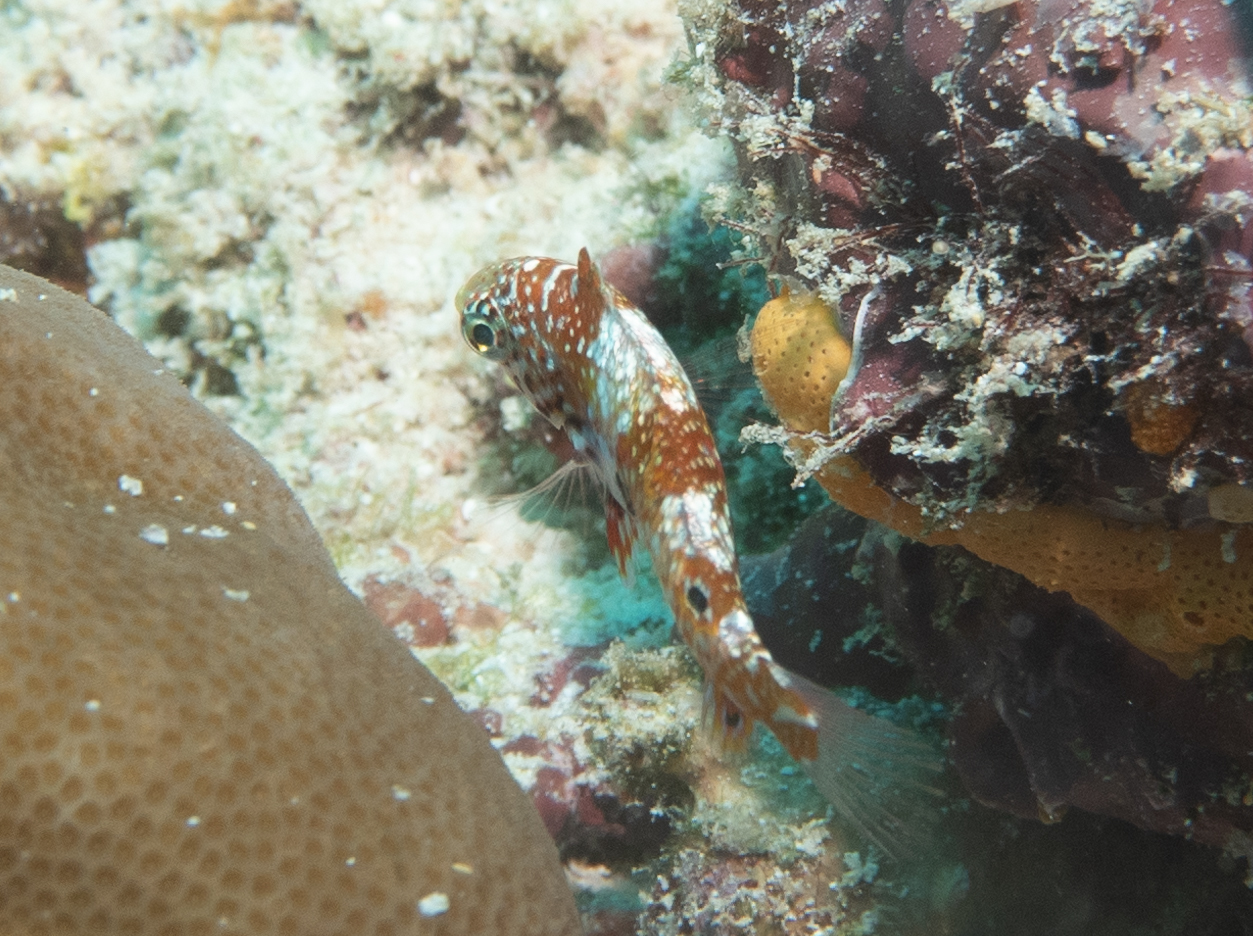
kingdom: Animalia
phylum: Chordata
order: Perciformes
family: Labridae
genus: Macropharyngodon
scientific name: Macropharyngodon bipartitus
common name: Divided wrasse
